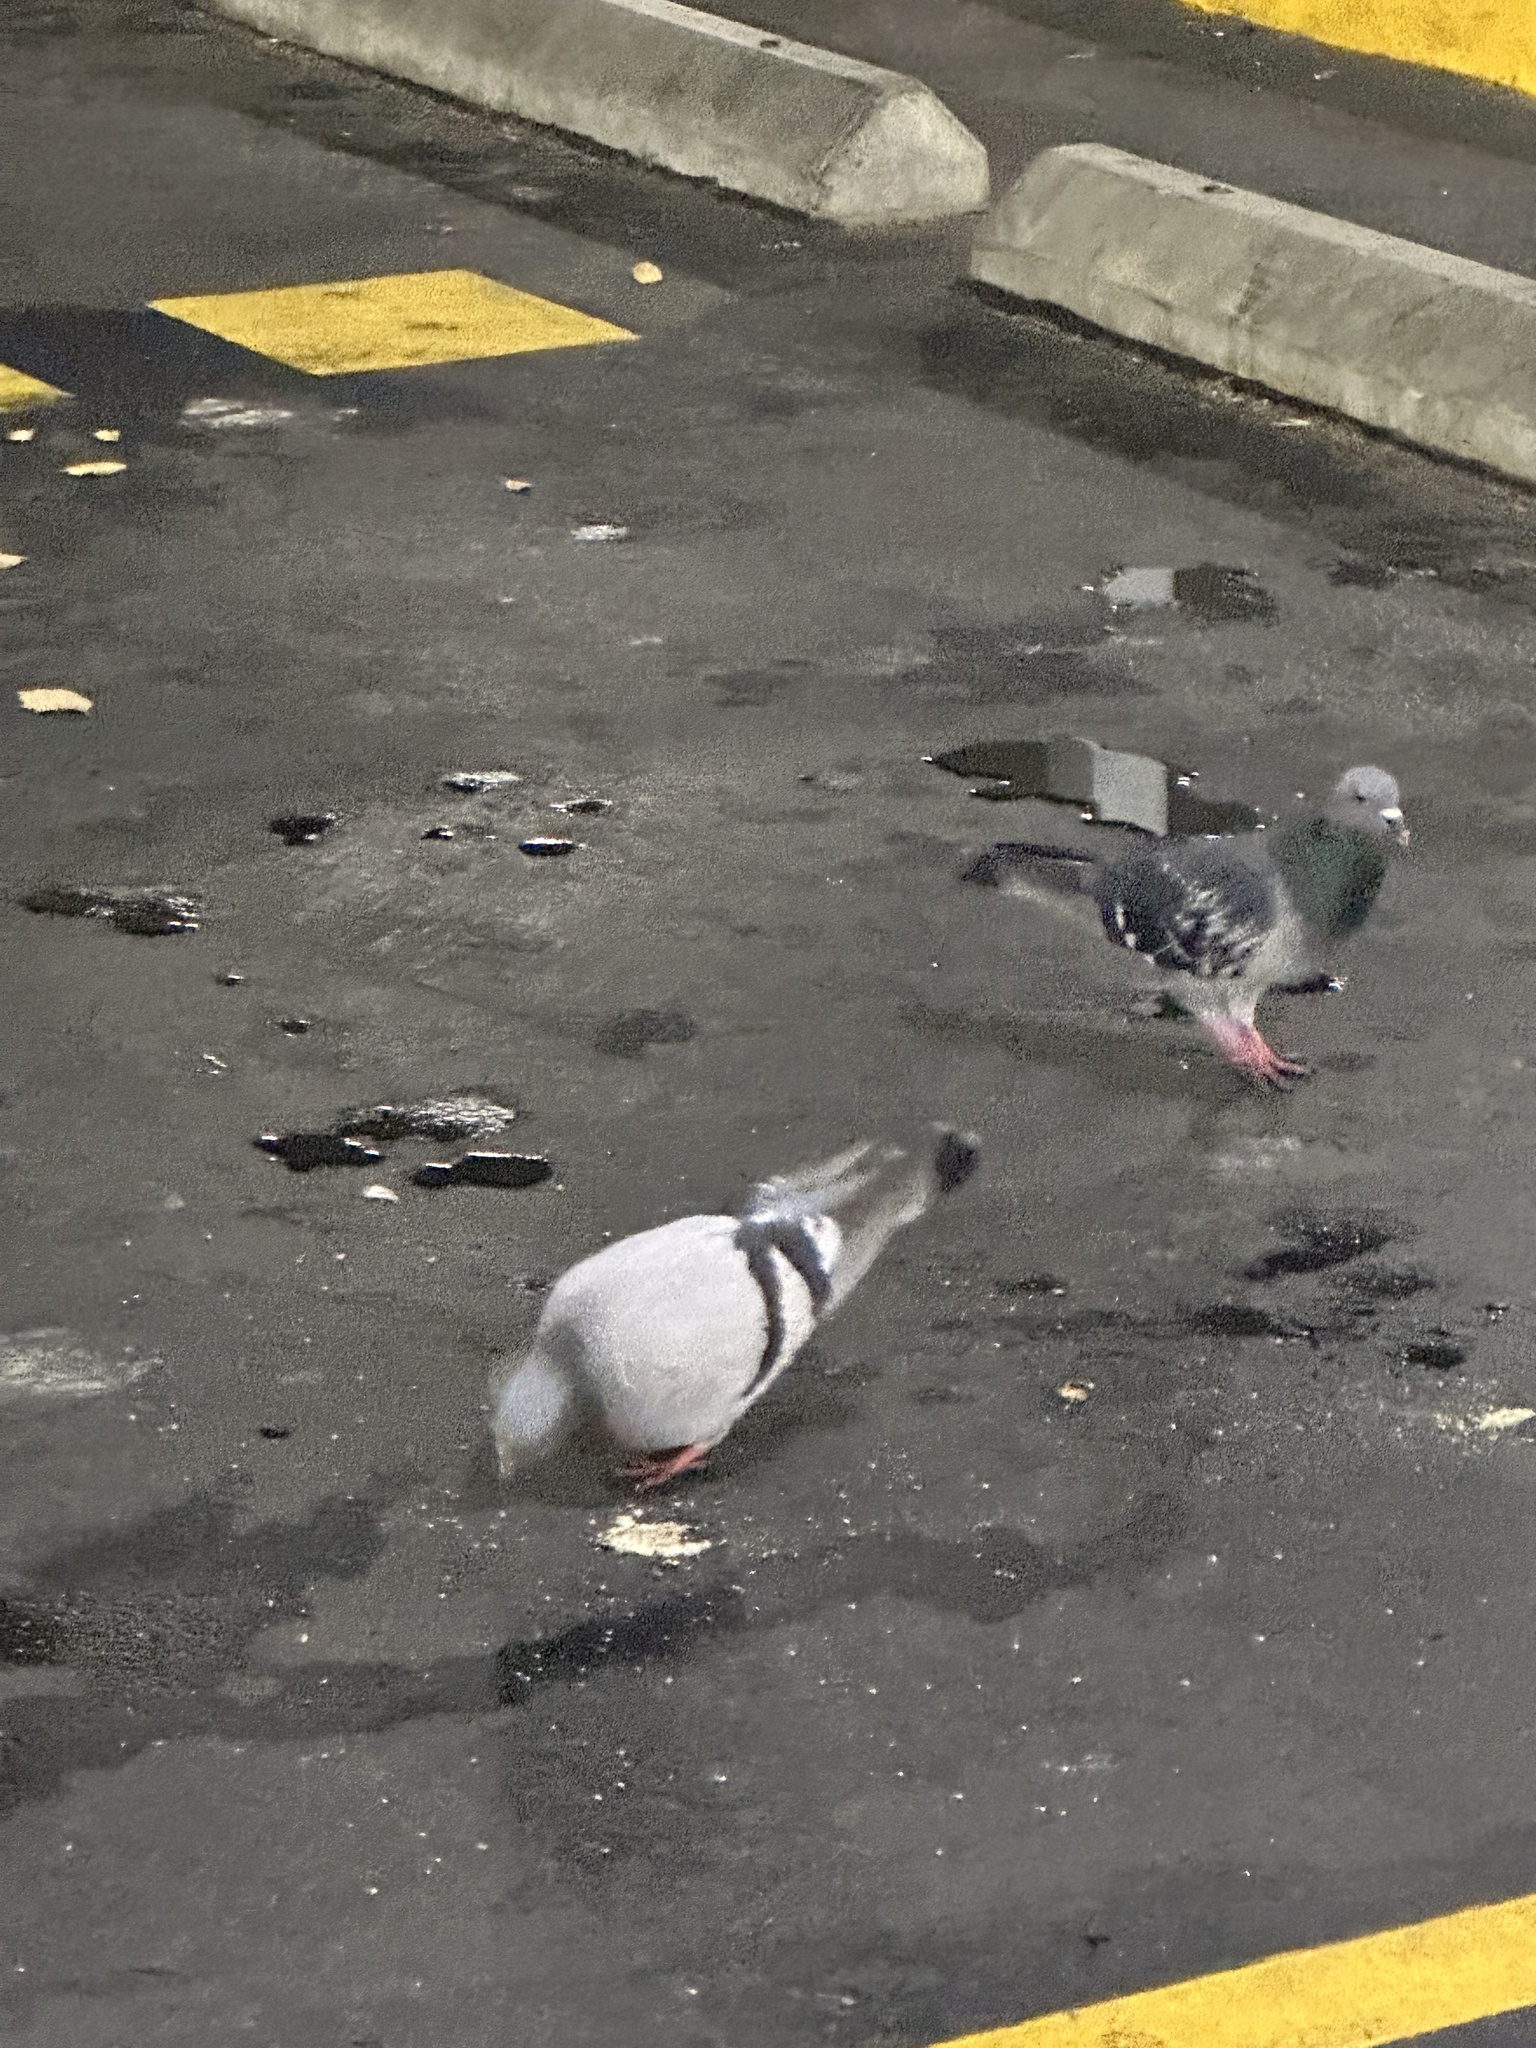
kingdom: Animalia
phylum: Chordata
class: Aves
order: Columbiformes
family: Columbidae
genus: Columba
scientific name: Columba livia
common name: Rock pigeon
